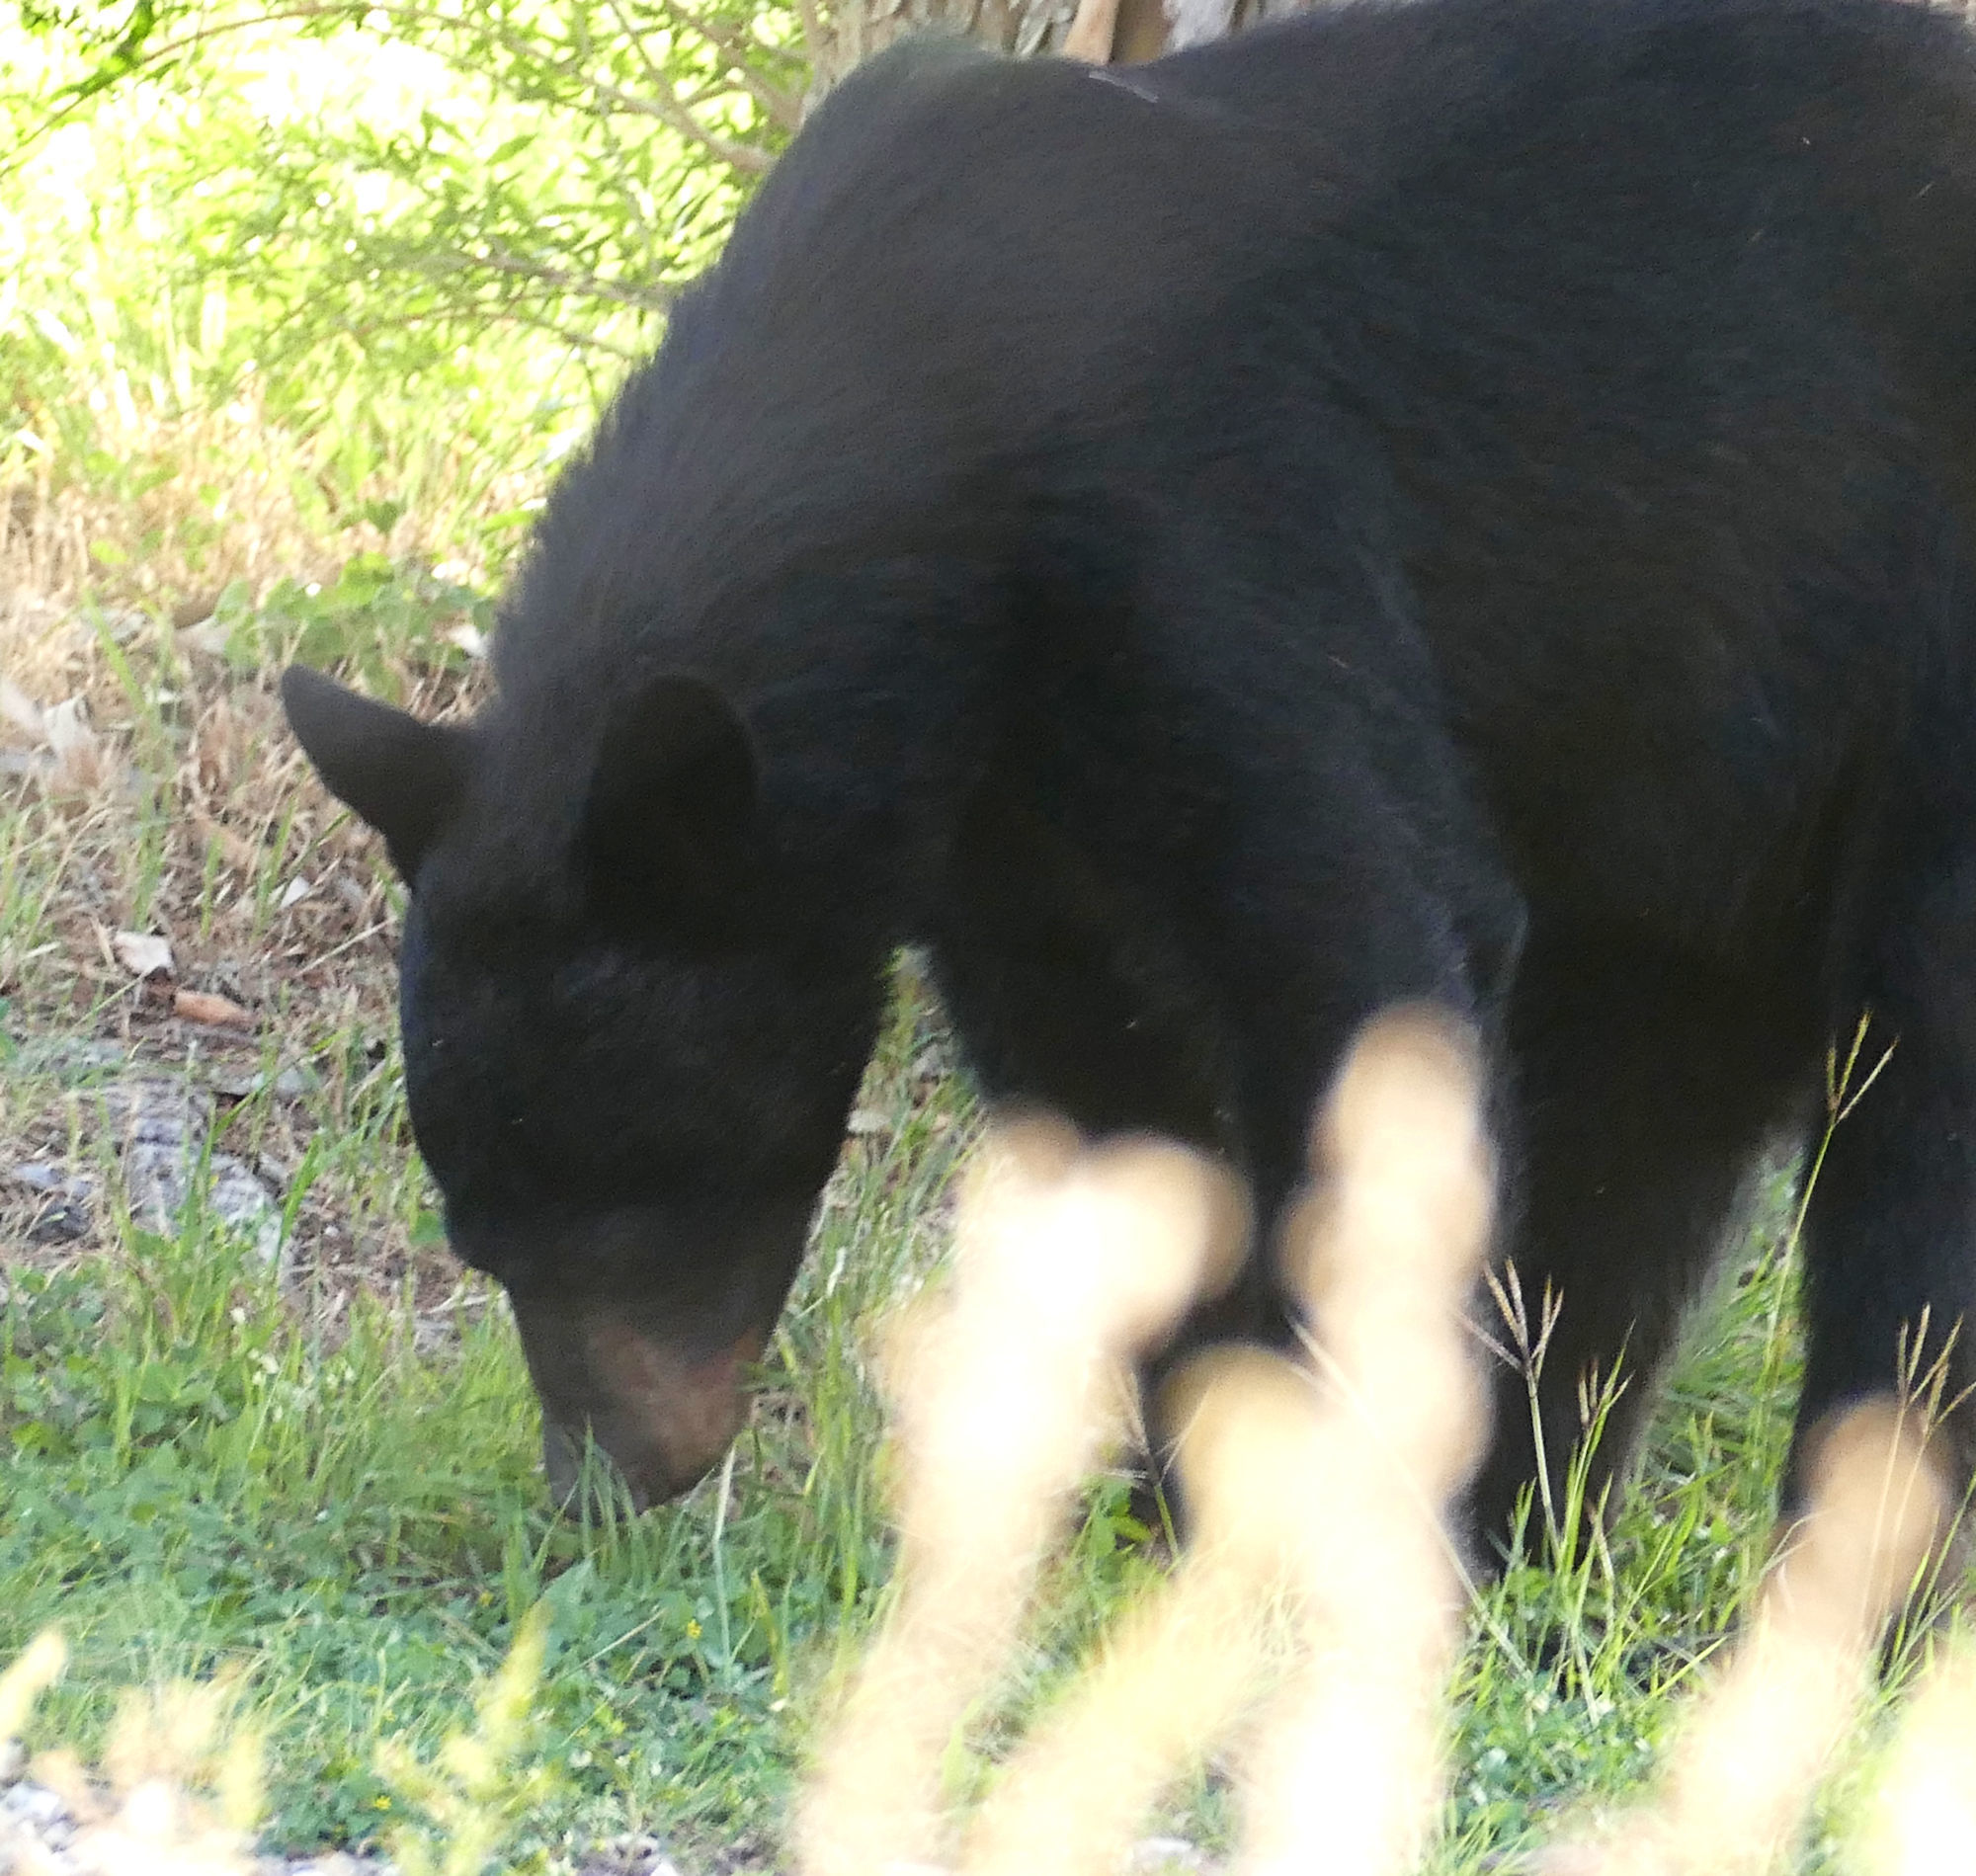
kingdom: Animalia
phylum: Chordata
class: Mammalia
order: Carnivora
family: Ursidae
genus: Ursus
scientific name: Ursus americanus
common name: American black bear
